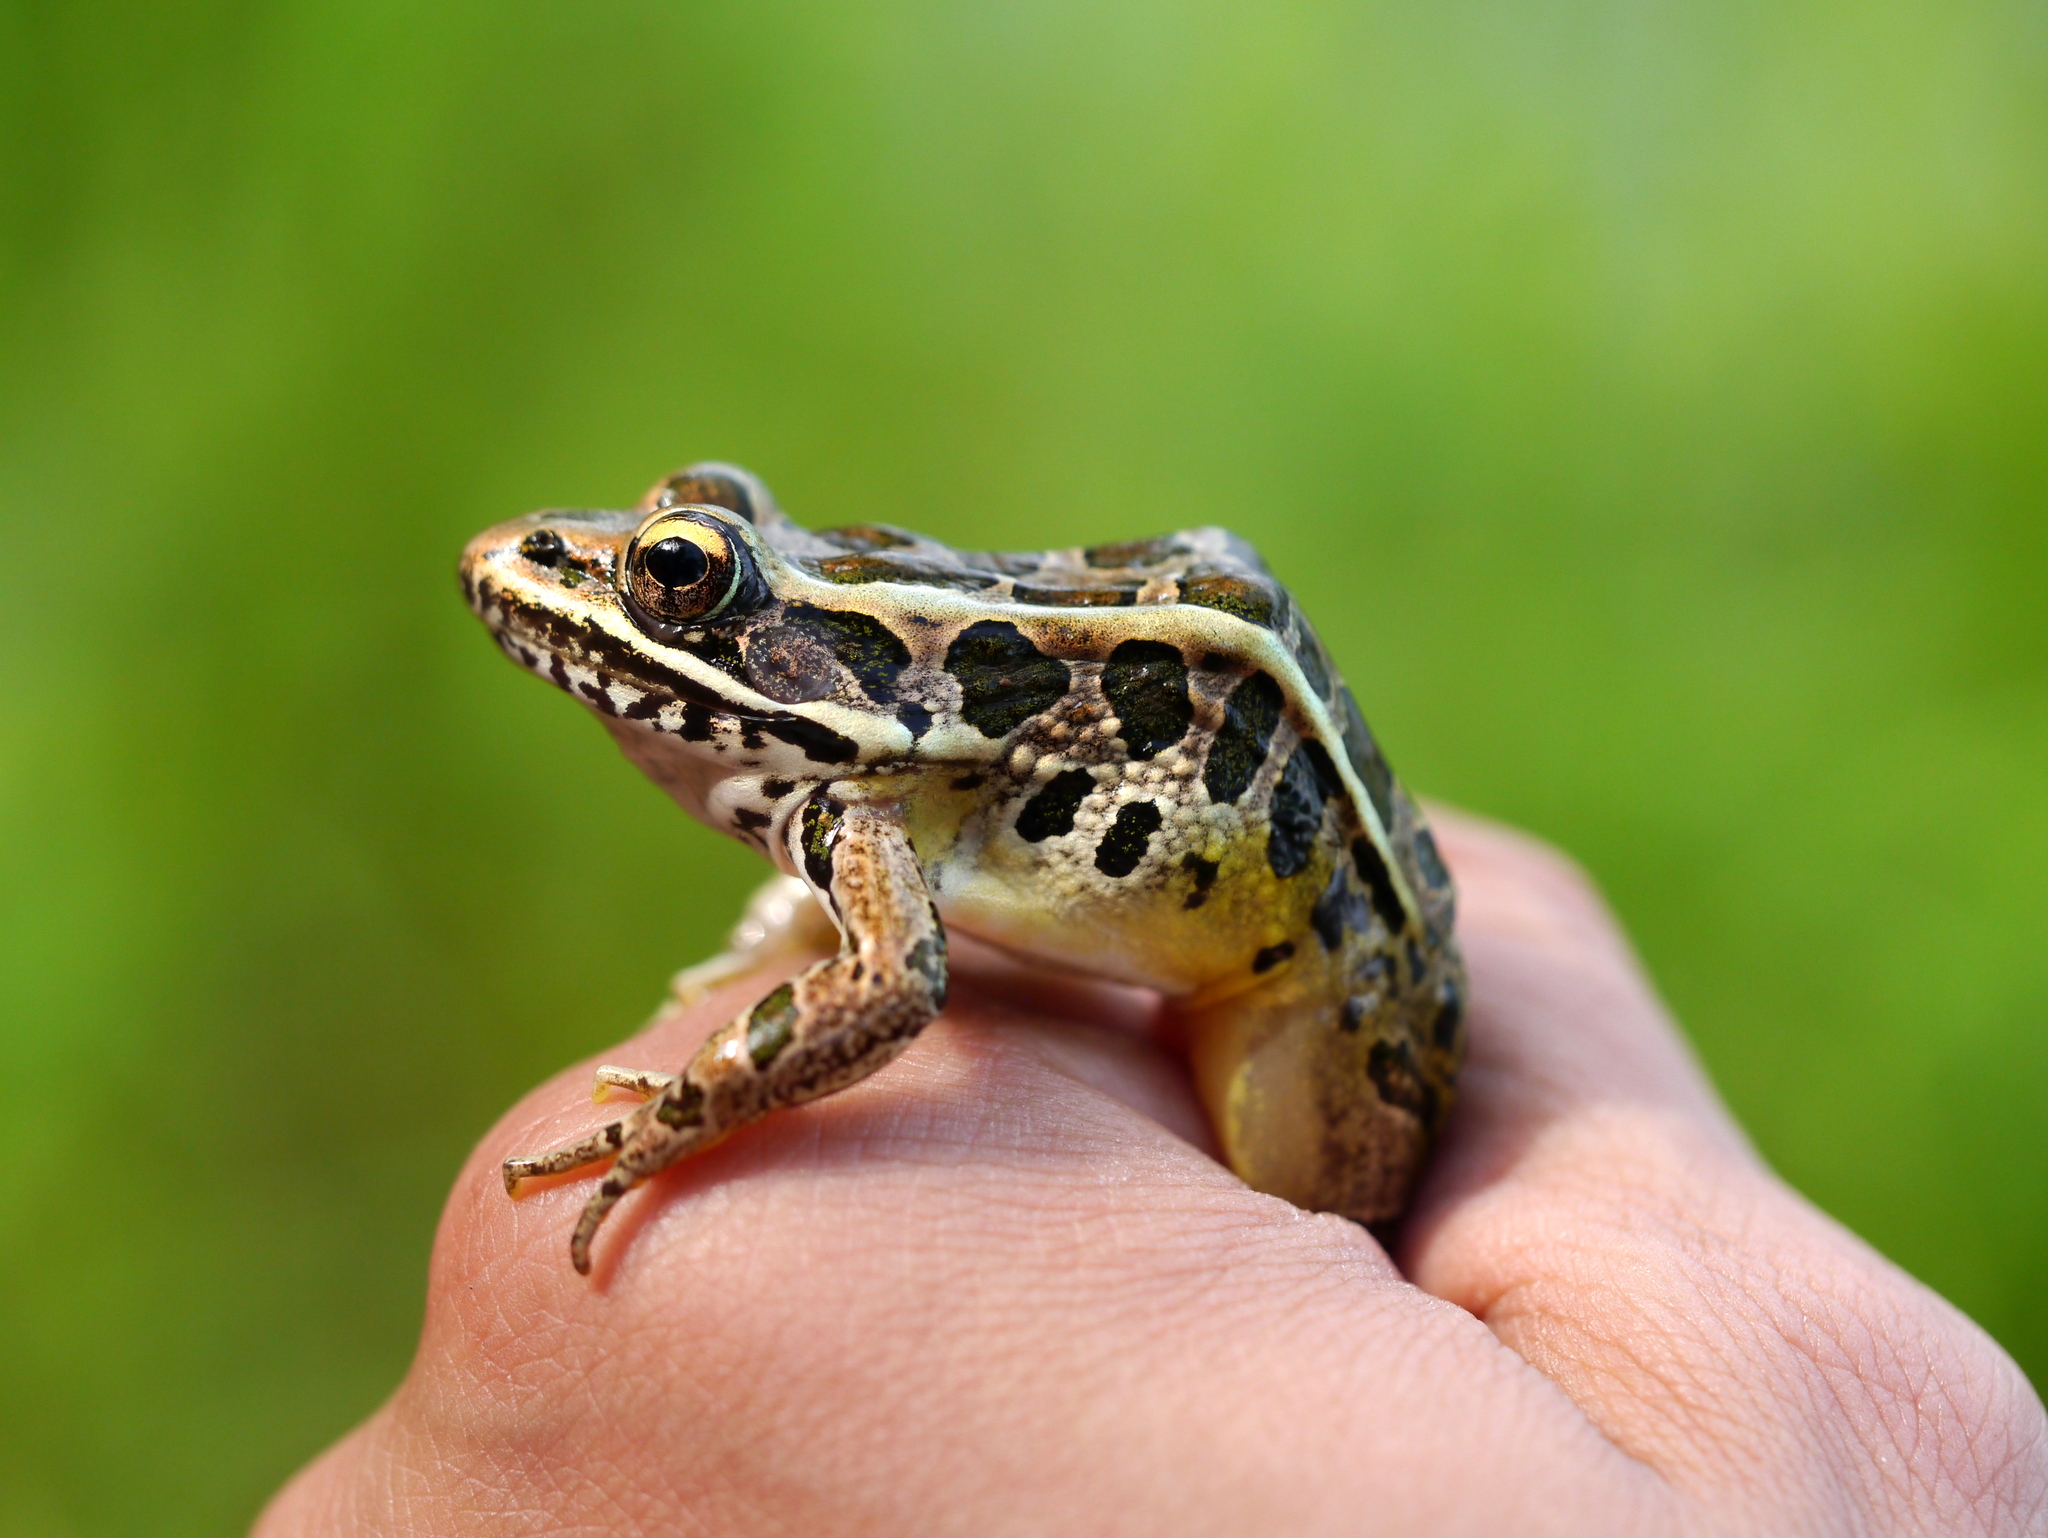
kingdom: Animalia
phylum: Chordata
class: Amphibia
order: Anura
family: Ranidae
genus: Lithobates
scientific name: Lithobates palustris
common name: Pickerel frog
